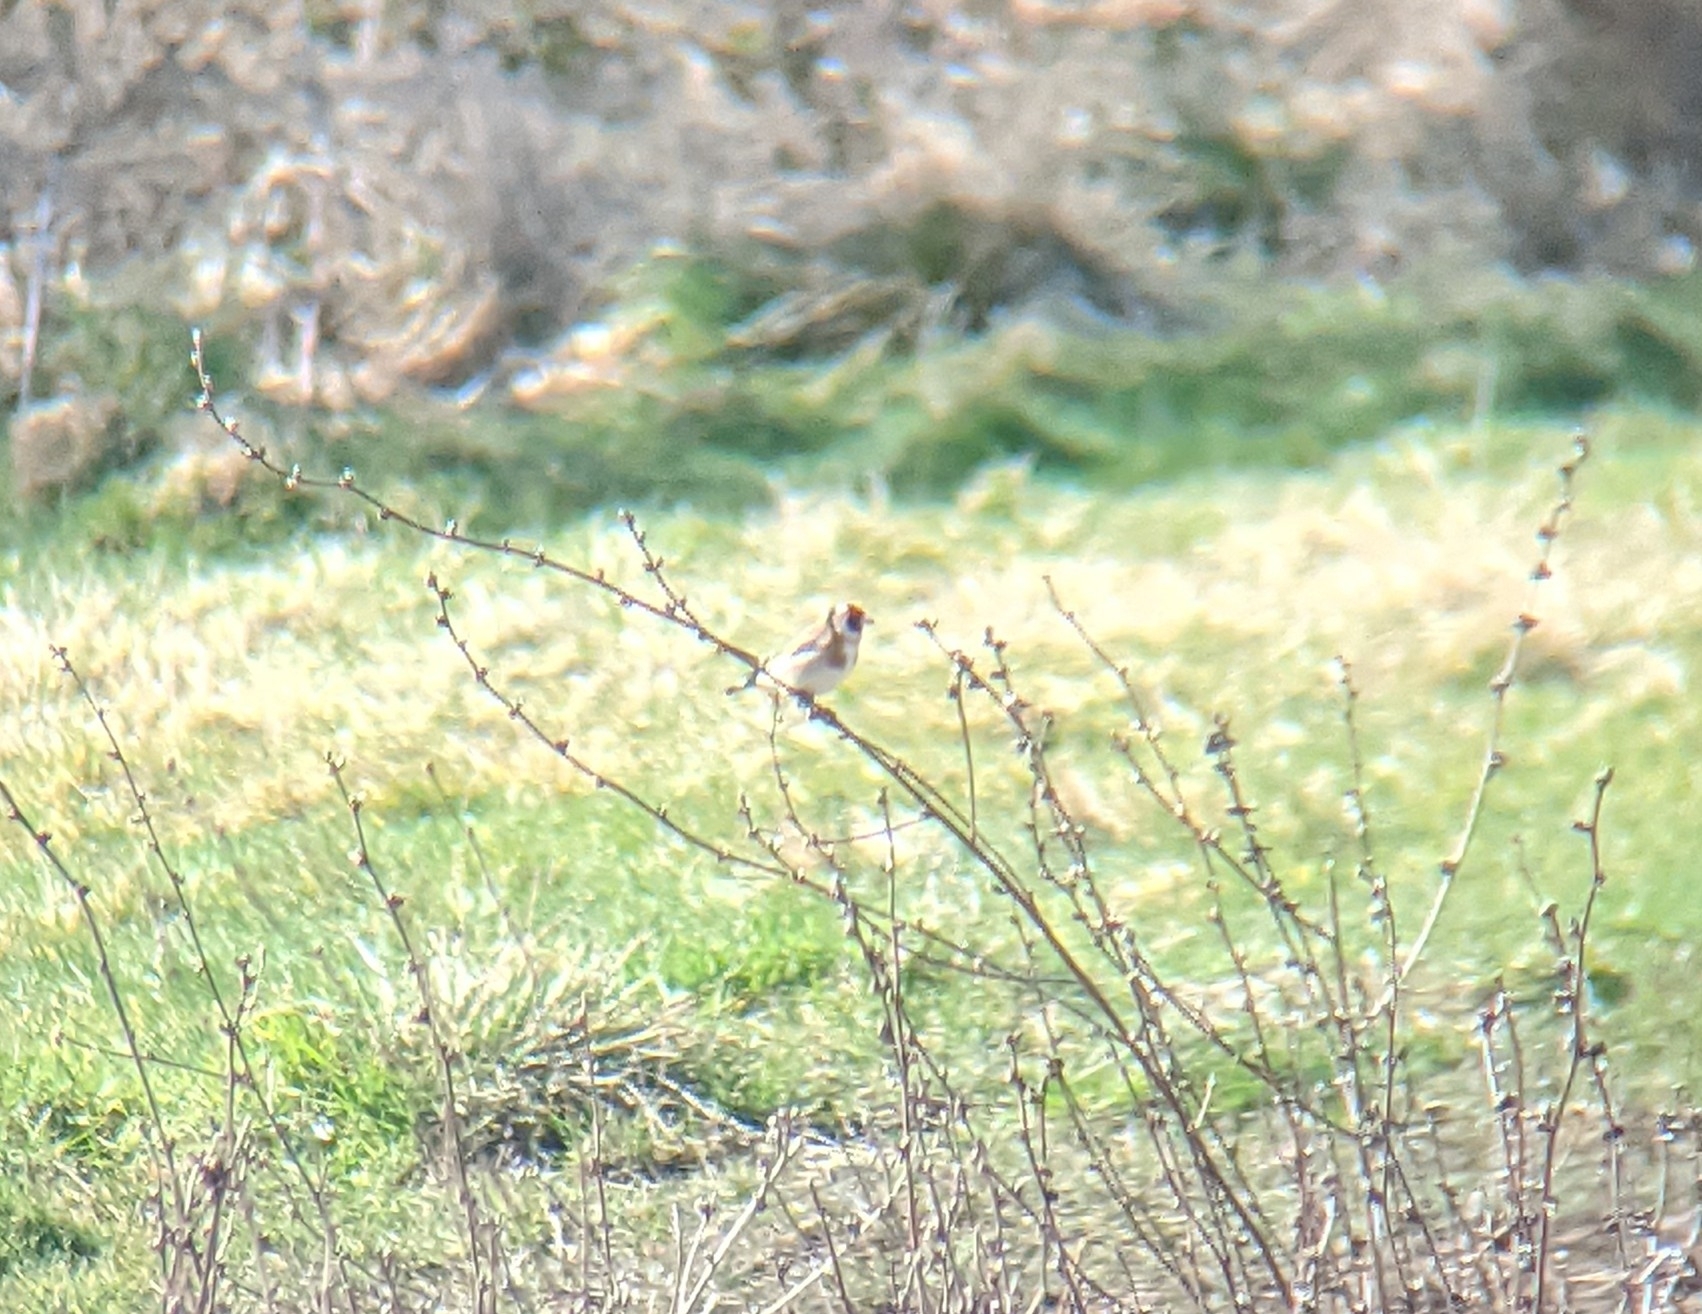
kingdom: Animalia
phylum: Chordata
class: Aves
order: Passeriformes
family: Fringillidae
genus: Carduelis
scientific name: Carduelis carduelis
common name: European goldfinch
